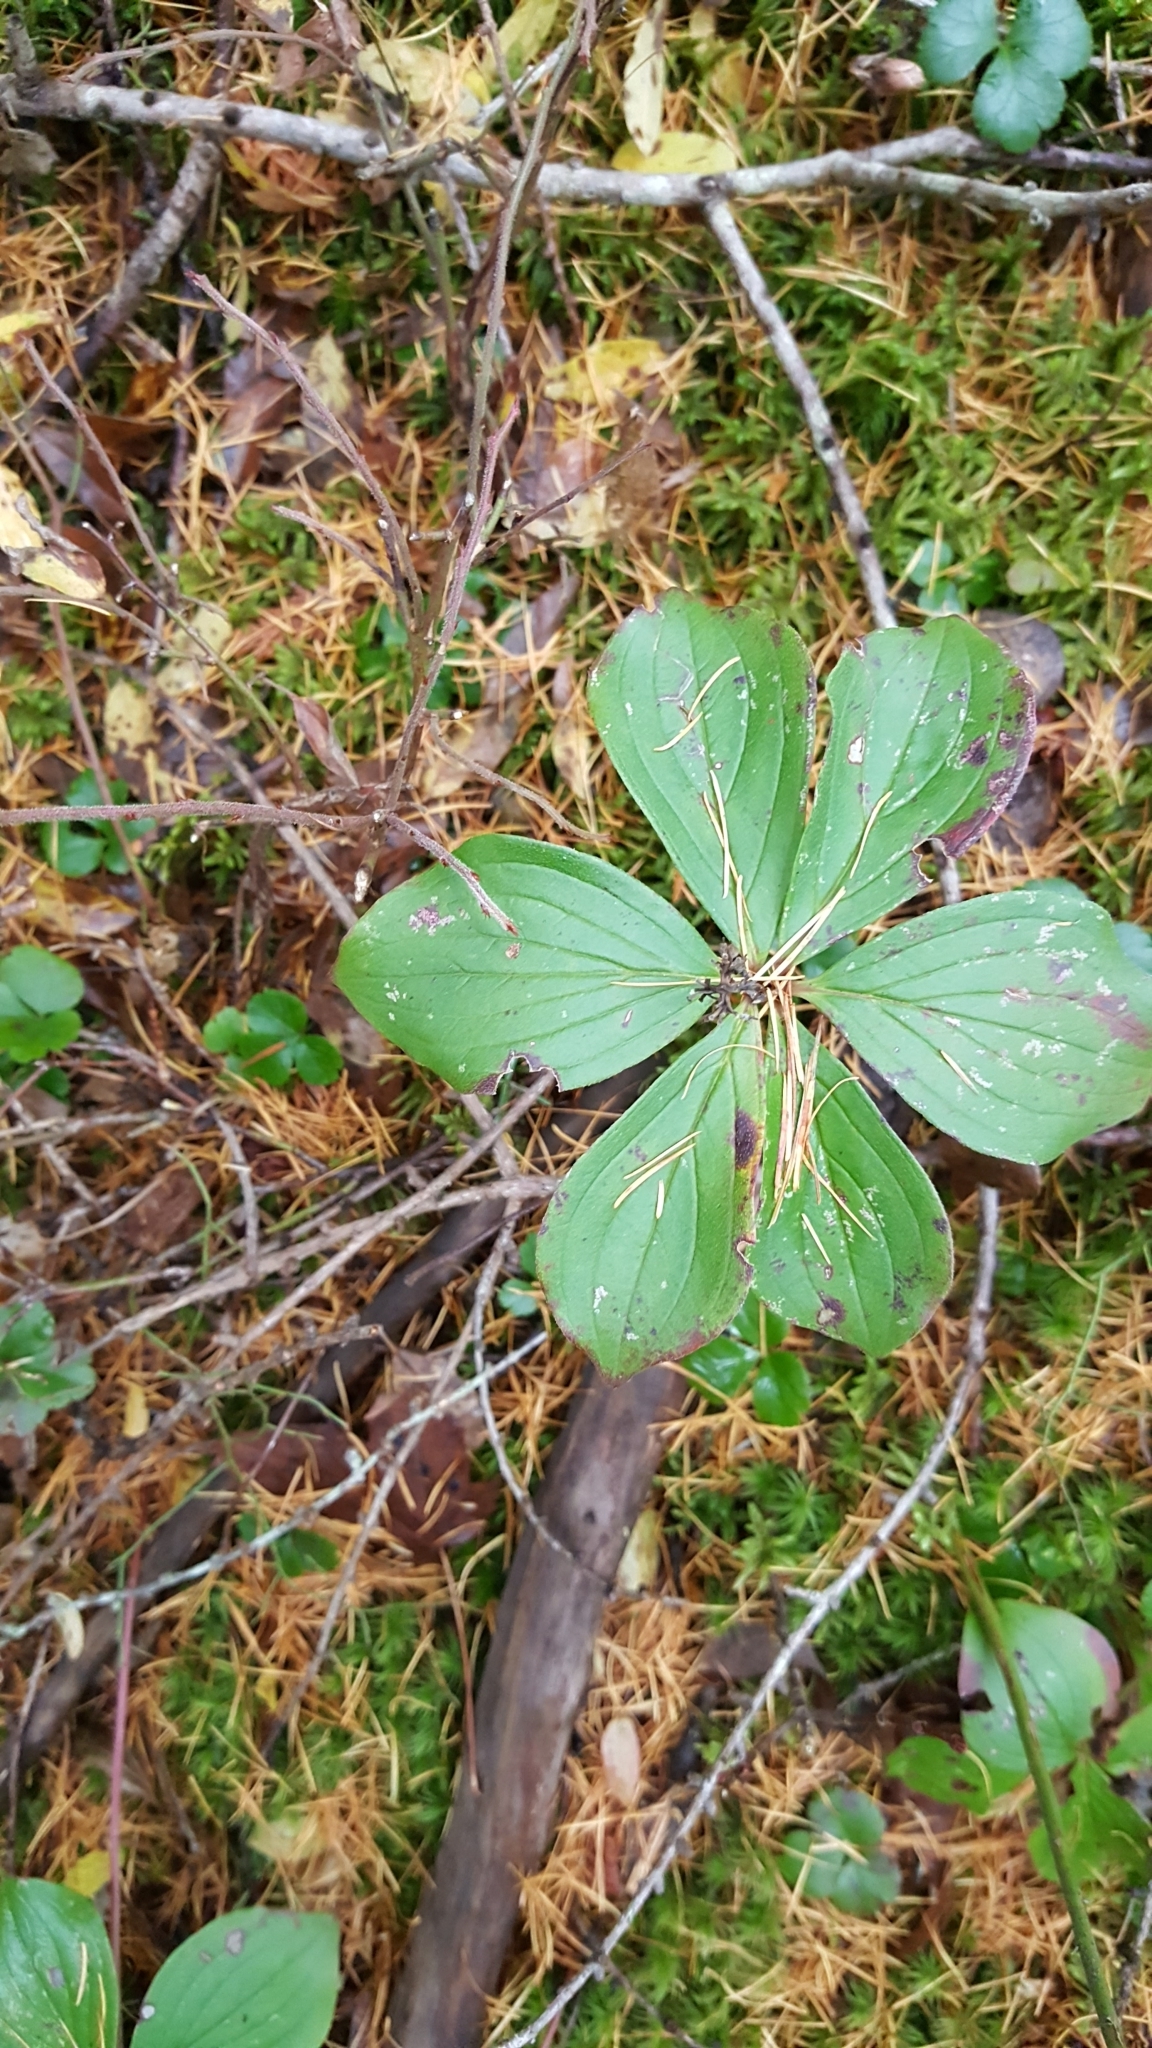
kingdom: Plantae
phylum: Tracheophyta
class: Magnoliopsida
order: Cornales
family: Cornaceae
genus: Cornus
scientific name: Cornus canadensis
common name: Creeping dogwood
